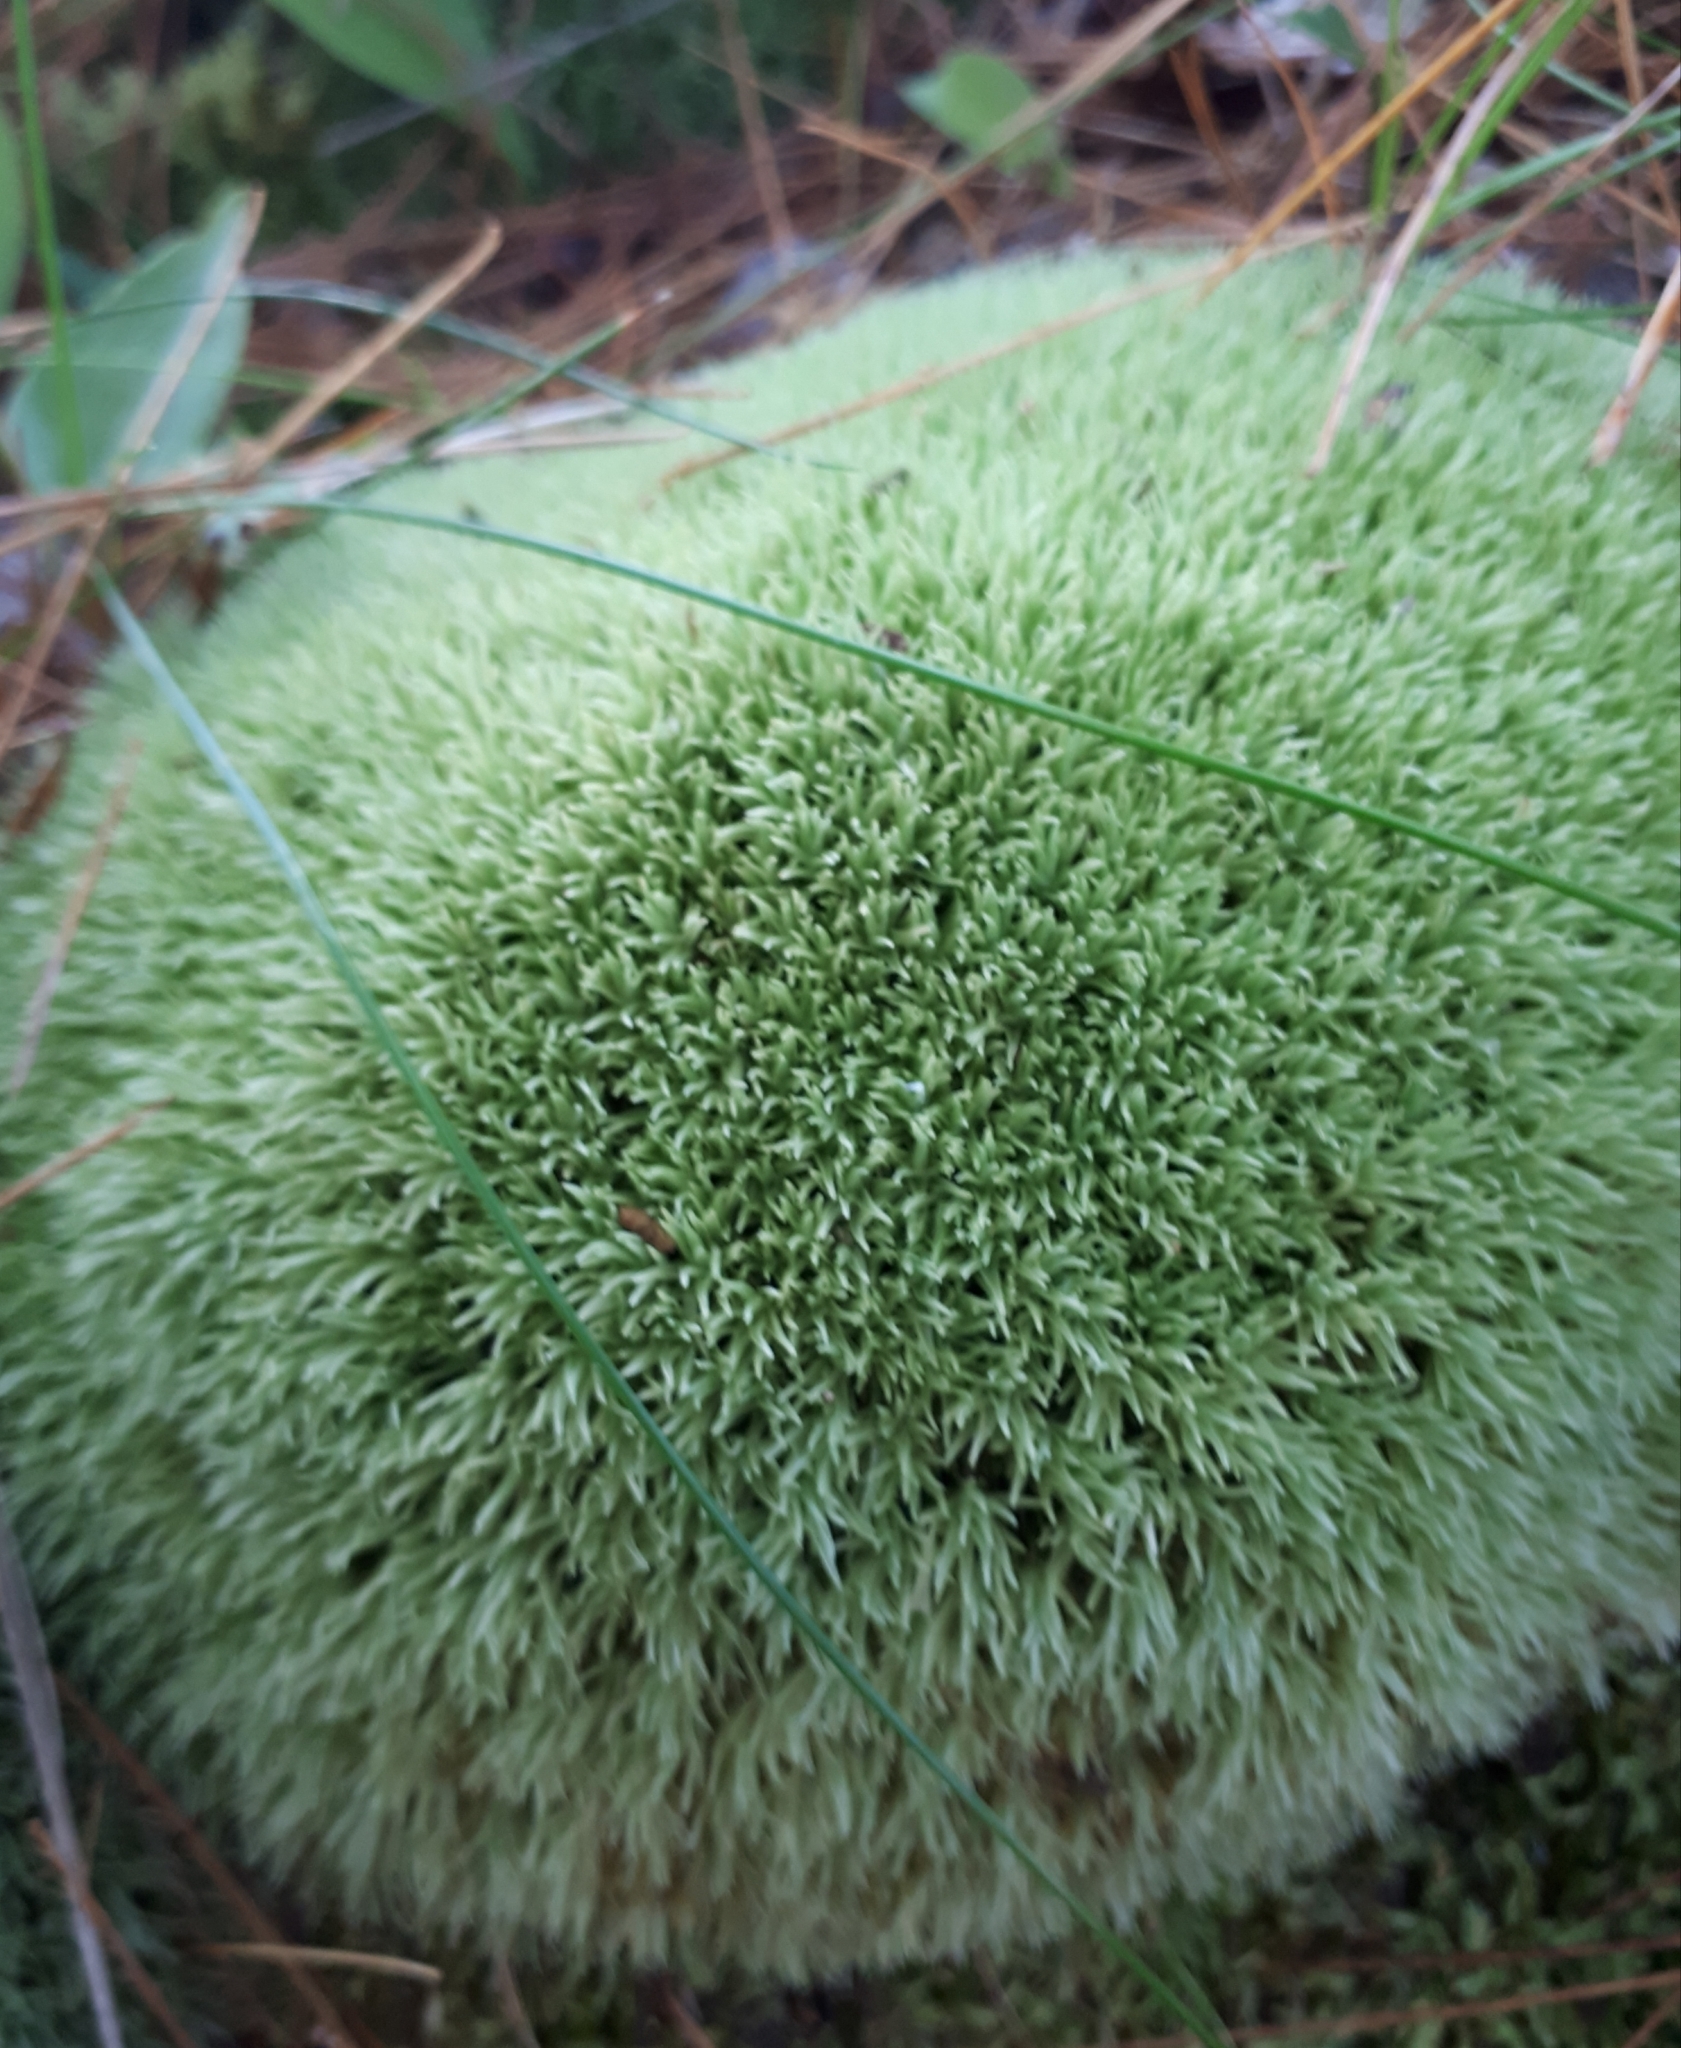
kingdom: Plantae
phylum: Bryophyta
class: Bryopsida
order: Dicranales
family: Leucobryaceae
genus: Leucobryum
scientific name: Leucobryum glaucum
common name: Large white-moss
